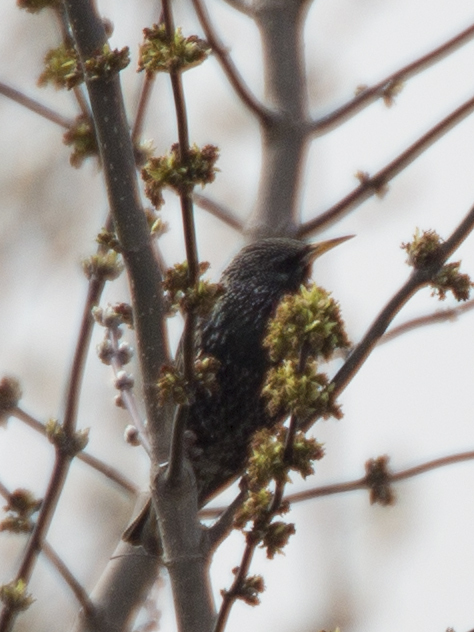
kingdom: Animalia
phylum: Chordata
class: Aves
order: Passeriformes
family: Sturnidae
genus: Sturnus
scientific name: Sturnus vulgaris
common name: Common starling
